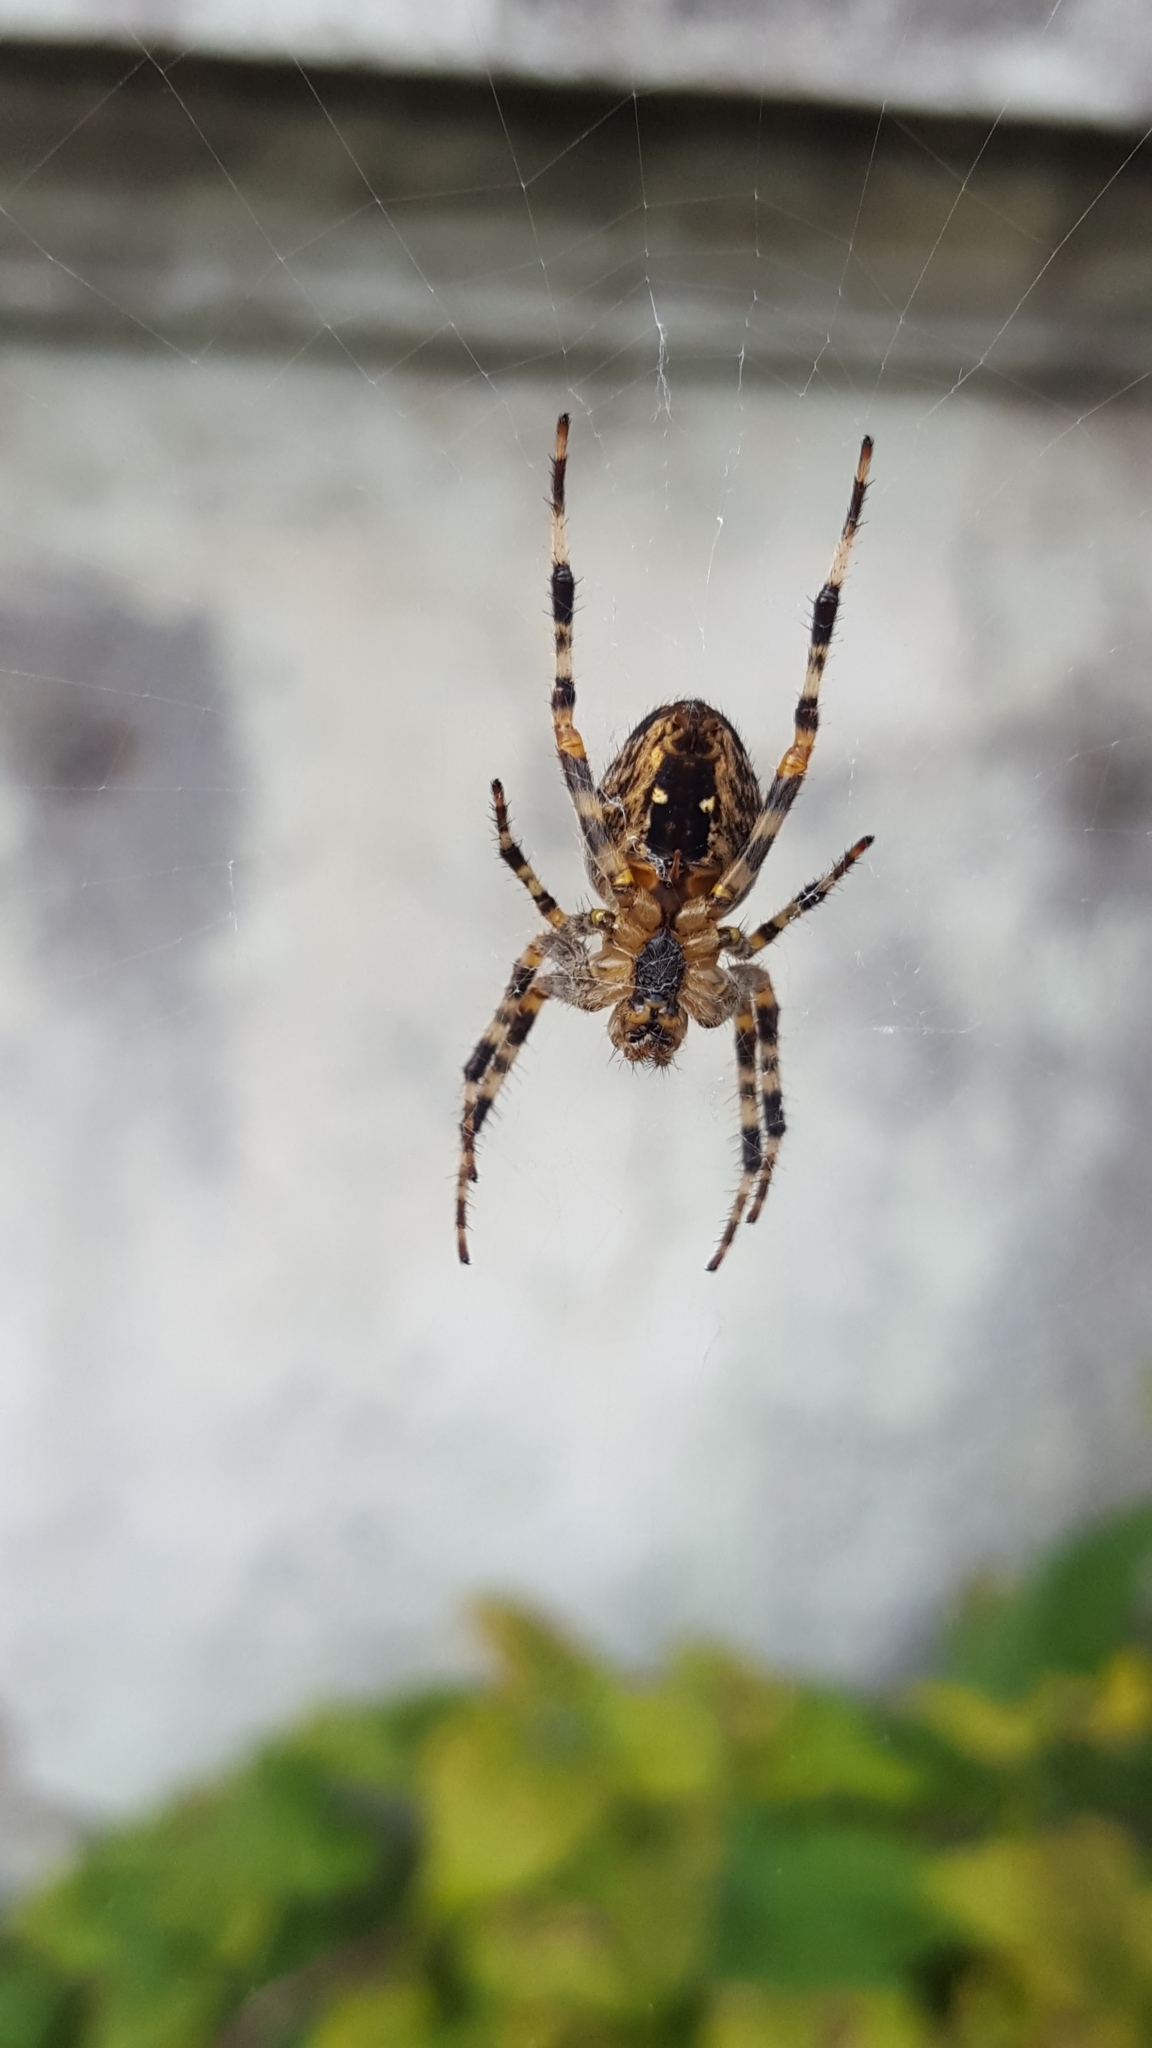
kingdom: Animalia
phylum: Arthropoda
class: Arachnida
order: Araneae
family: Araneidae
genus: Araneus
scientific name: Araneus diadematus
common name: Cross orbweaver
